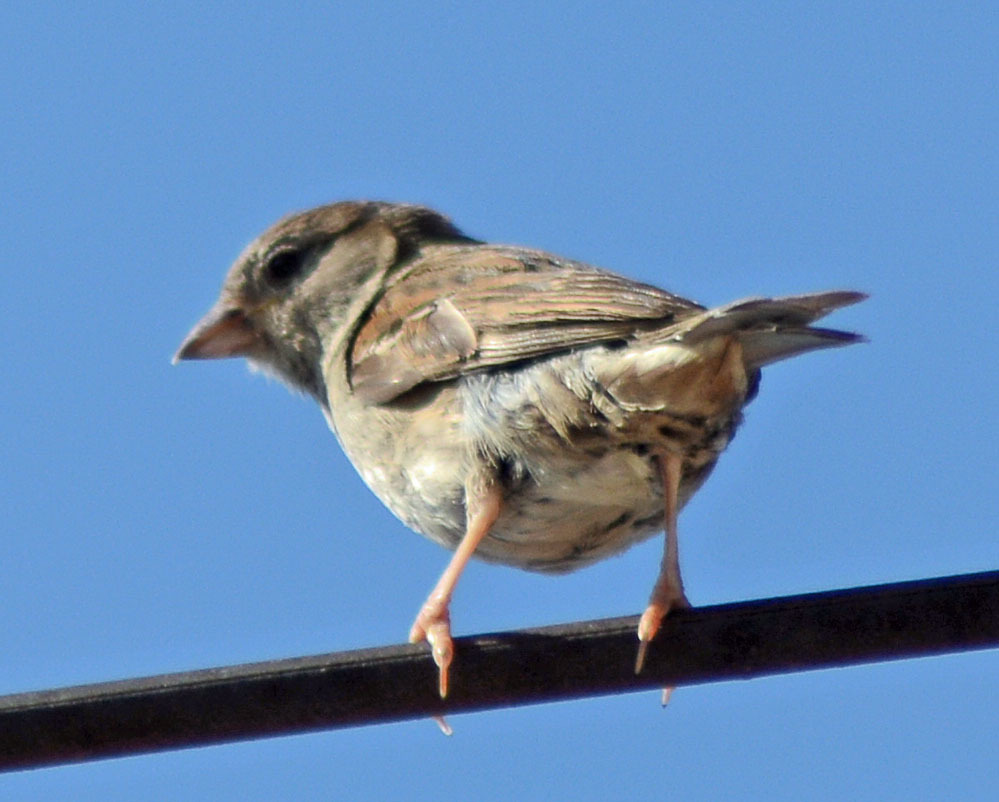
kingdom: Animalia
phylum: Chordata
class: Aves
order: Passeriformes
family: Passeridae
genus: Passer
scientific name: Passer domesticus
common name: House sparrow
